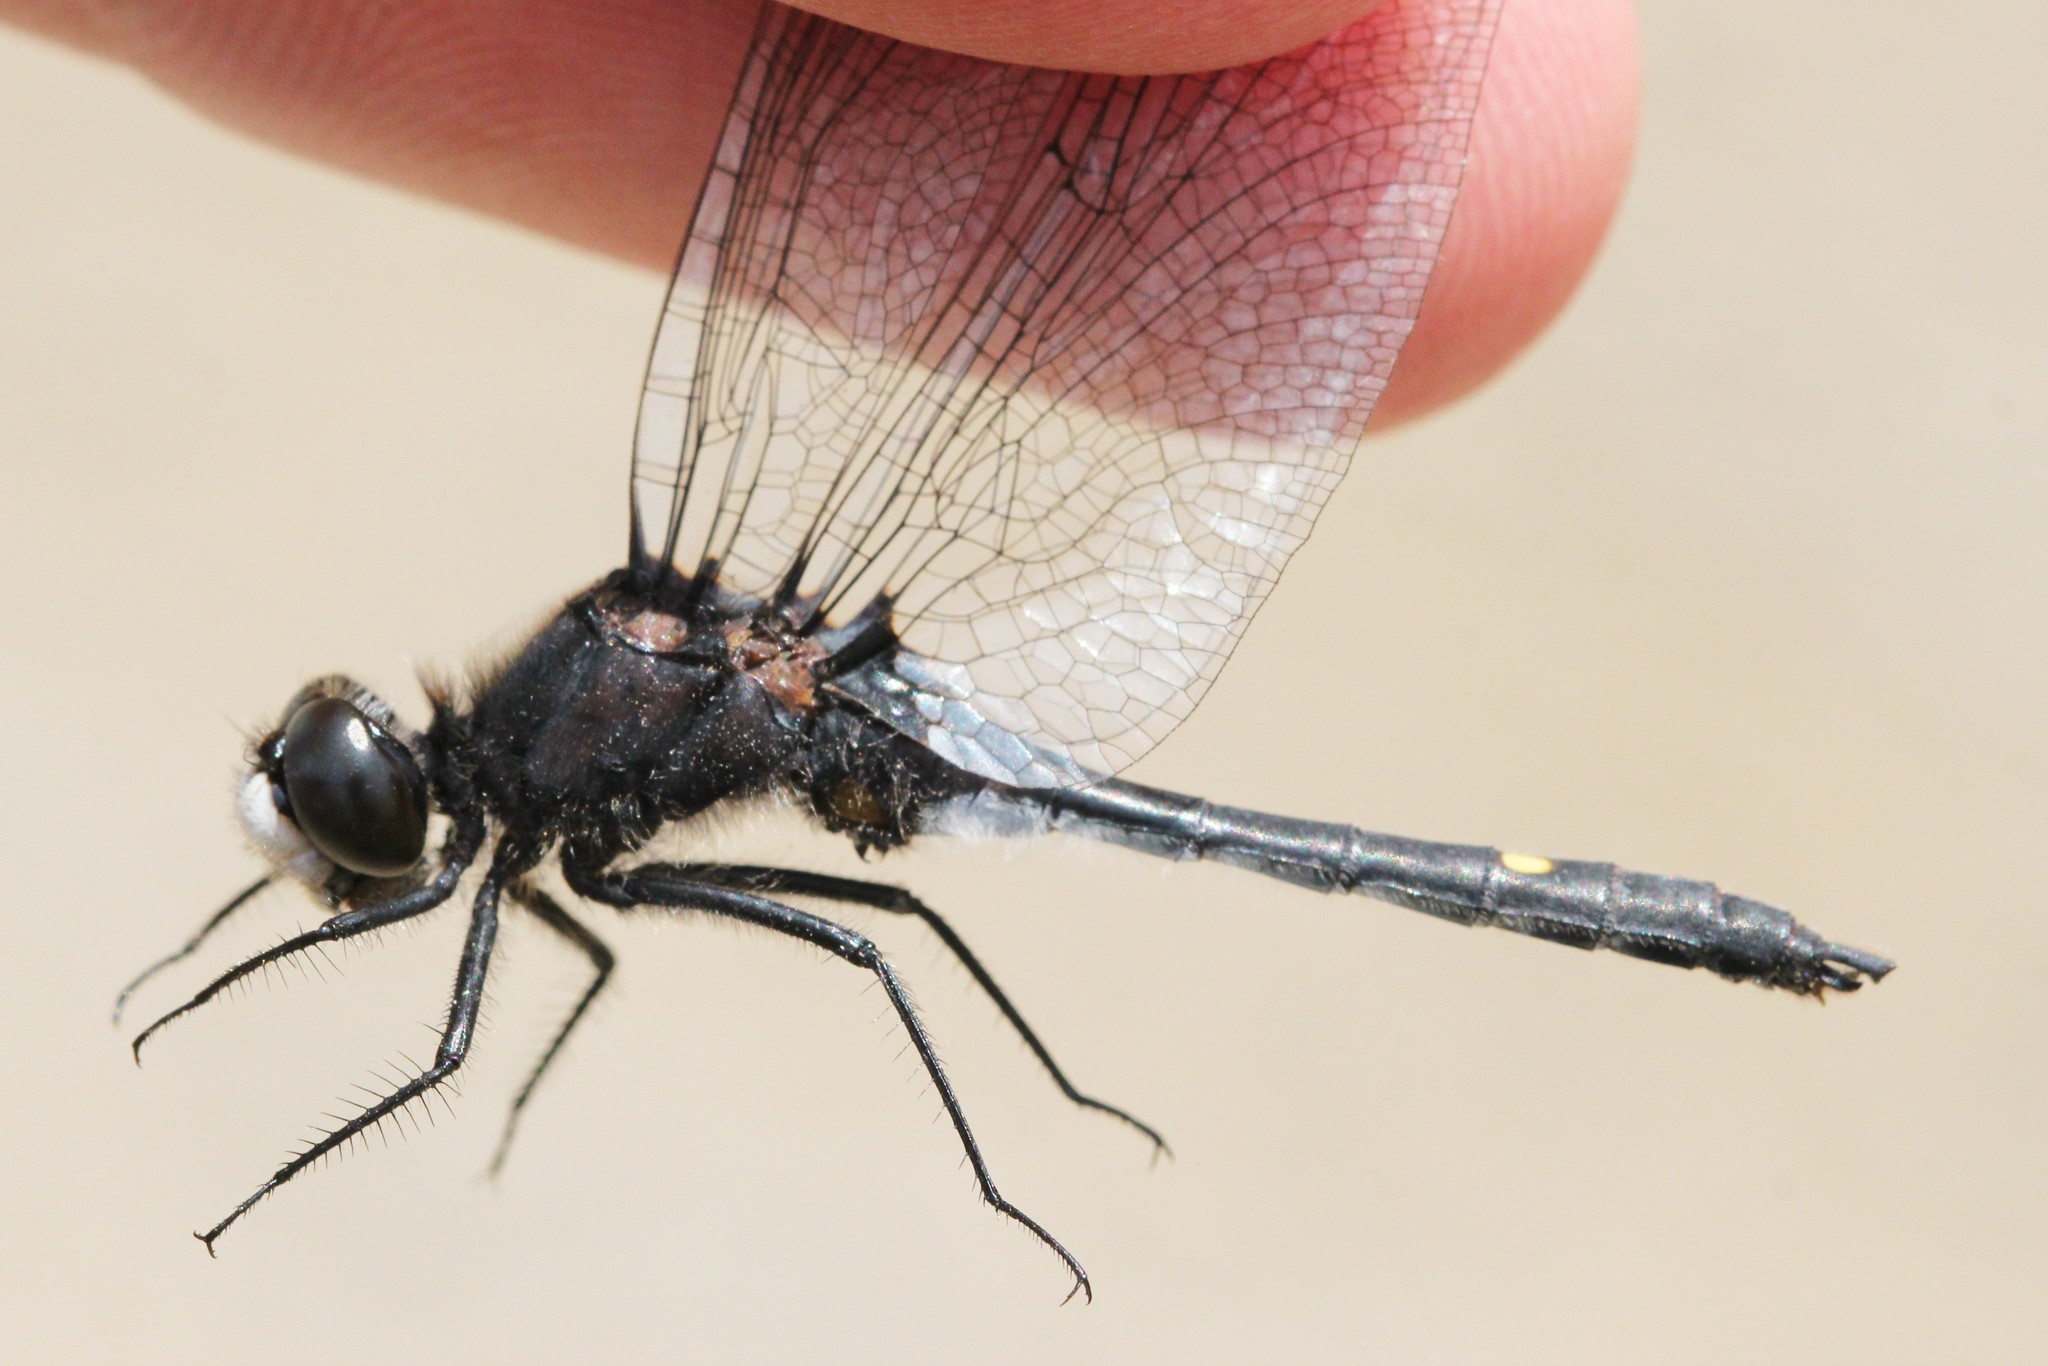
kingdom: Animalia
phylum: Arthropoda
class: Insecta
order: Odonata
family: Libellulidae
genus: Leucorrhinia
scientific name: Leucorrhinia intacta
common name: Dot-tailed whiteface
